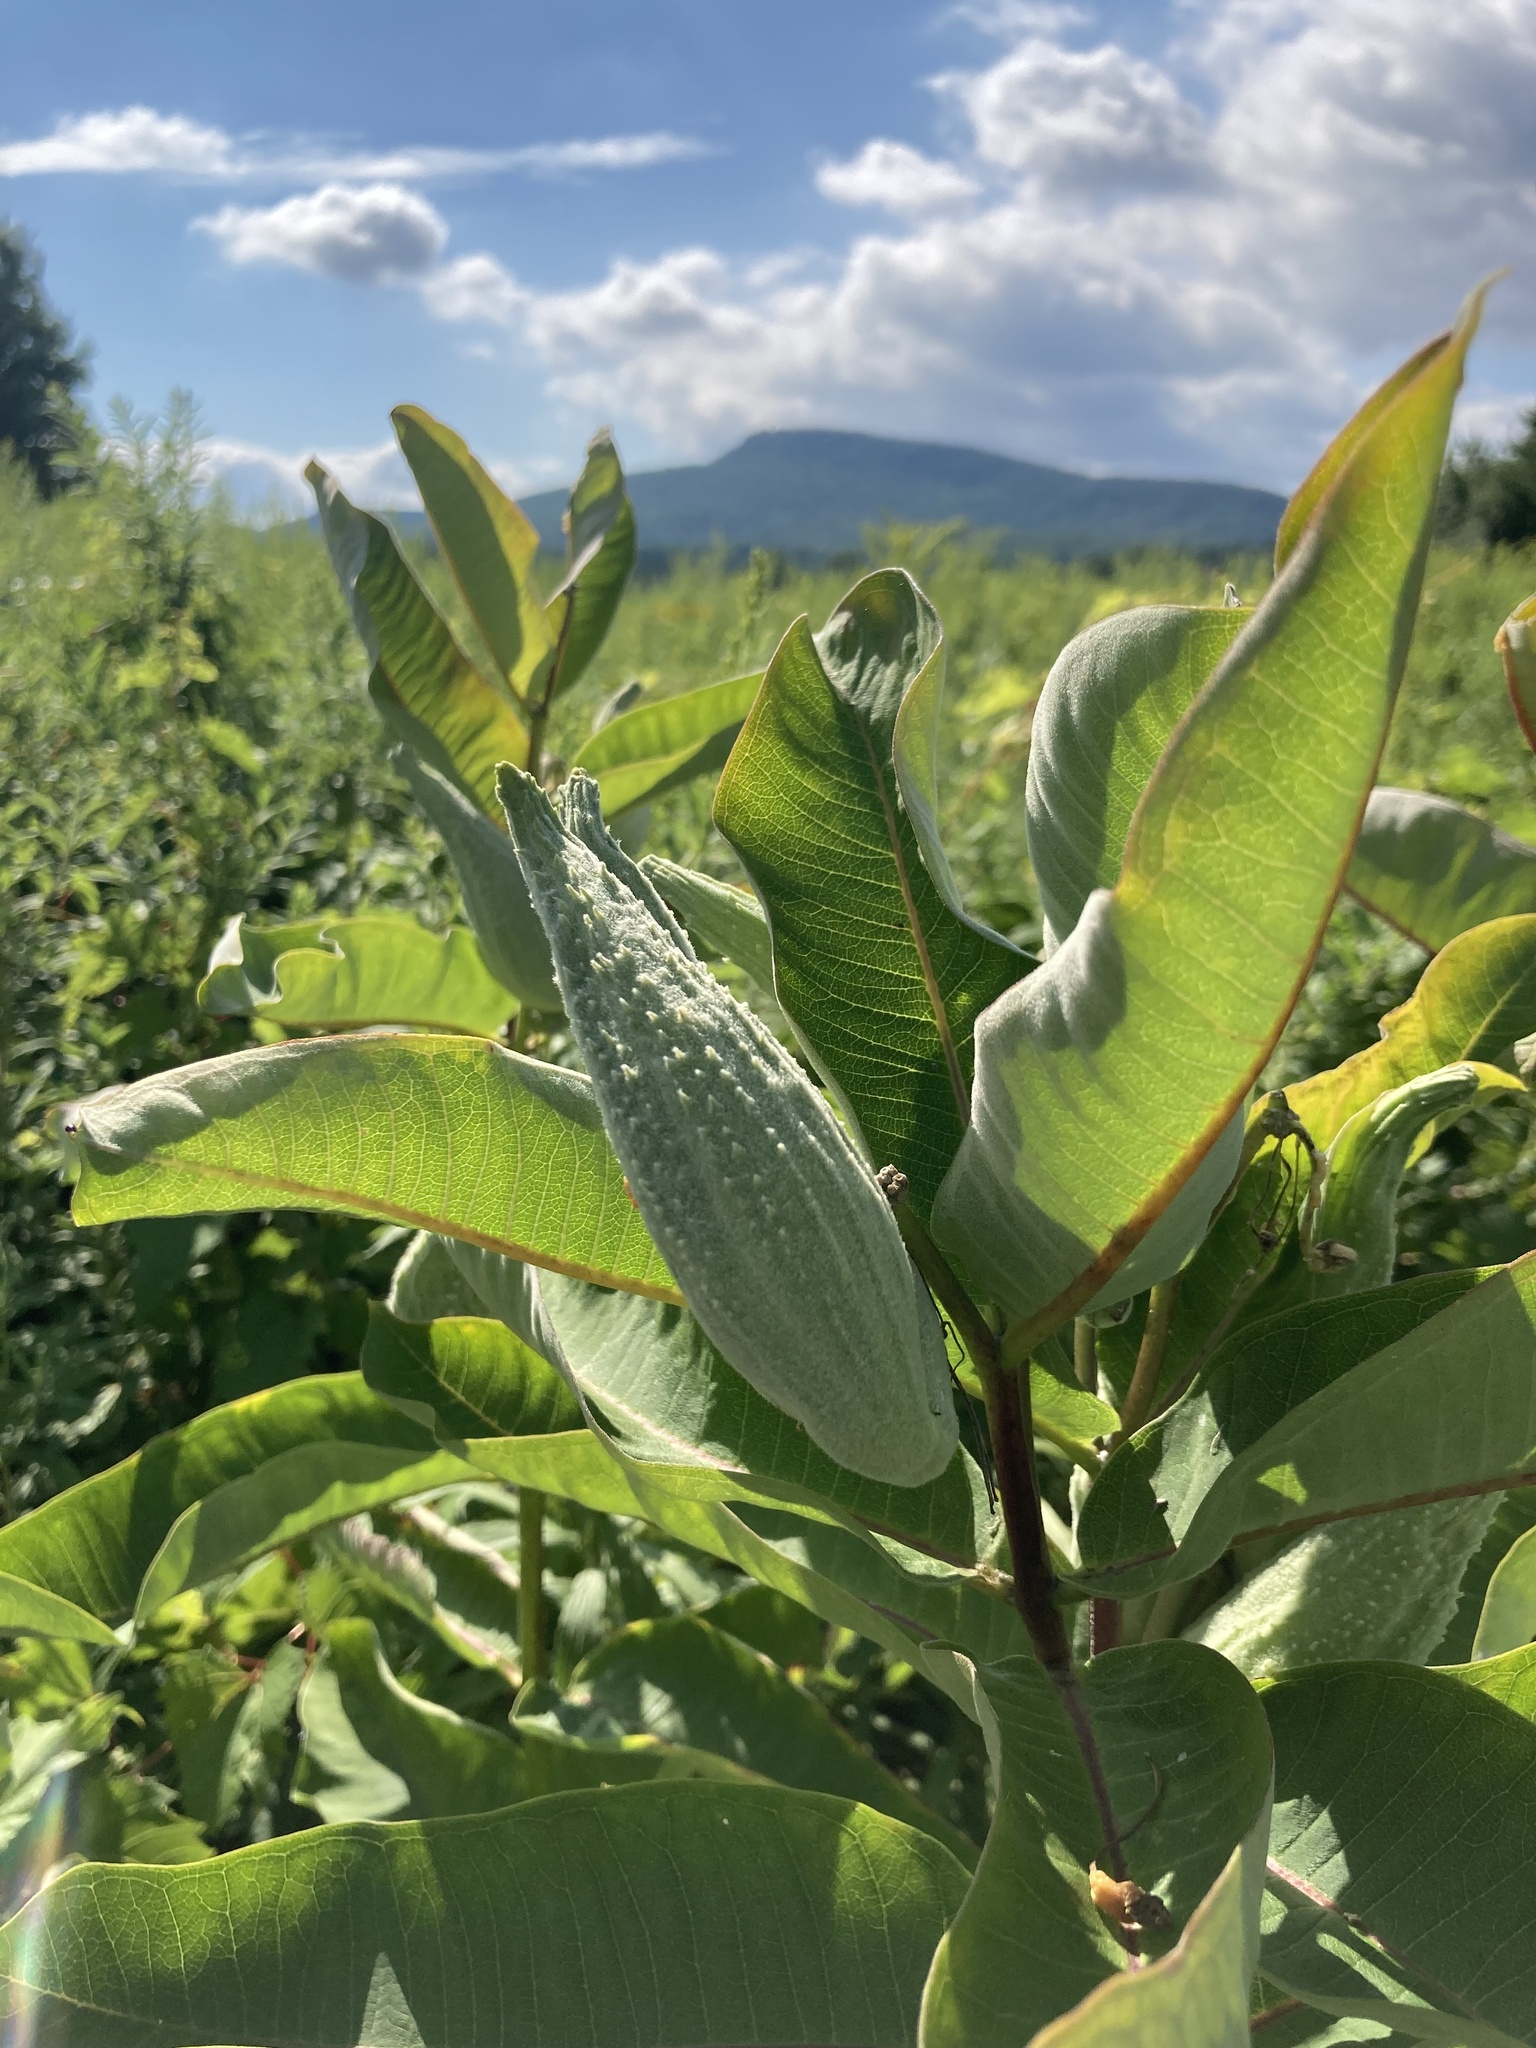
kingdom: Plantae
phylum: Tracheophyta
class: Magnoliopsida
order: Gentianales
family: Apocynaceae
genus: Asclepias
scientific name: Asclepias syriaca
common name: Common milkweed
